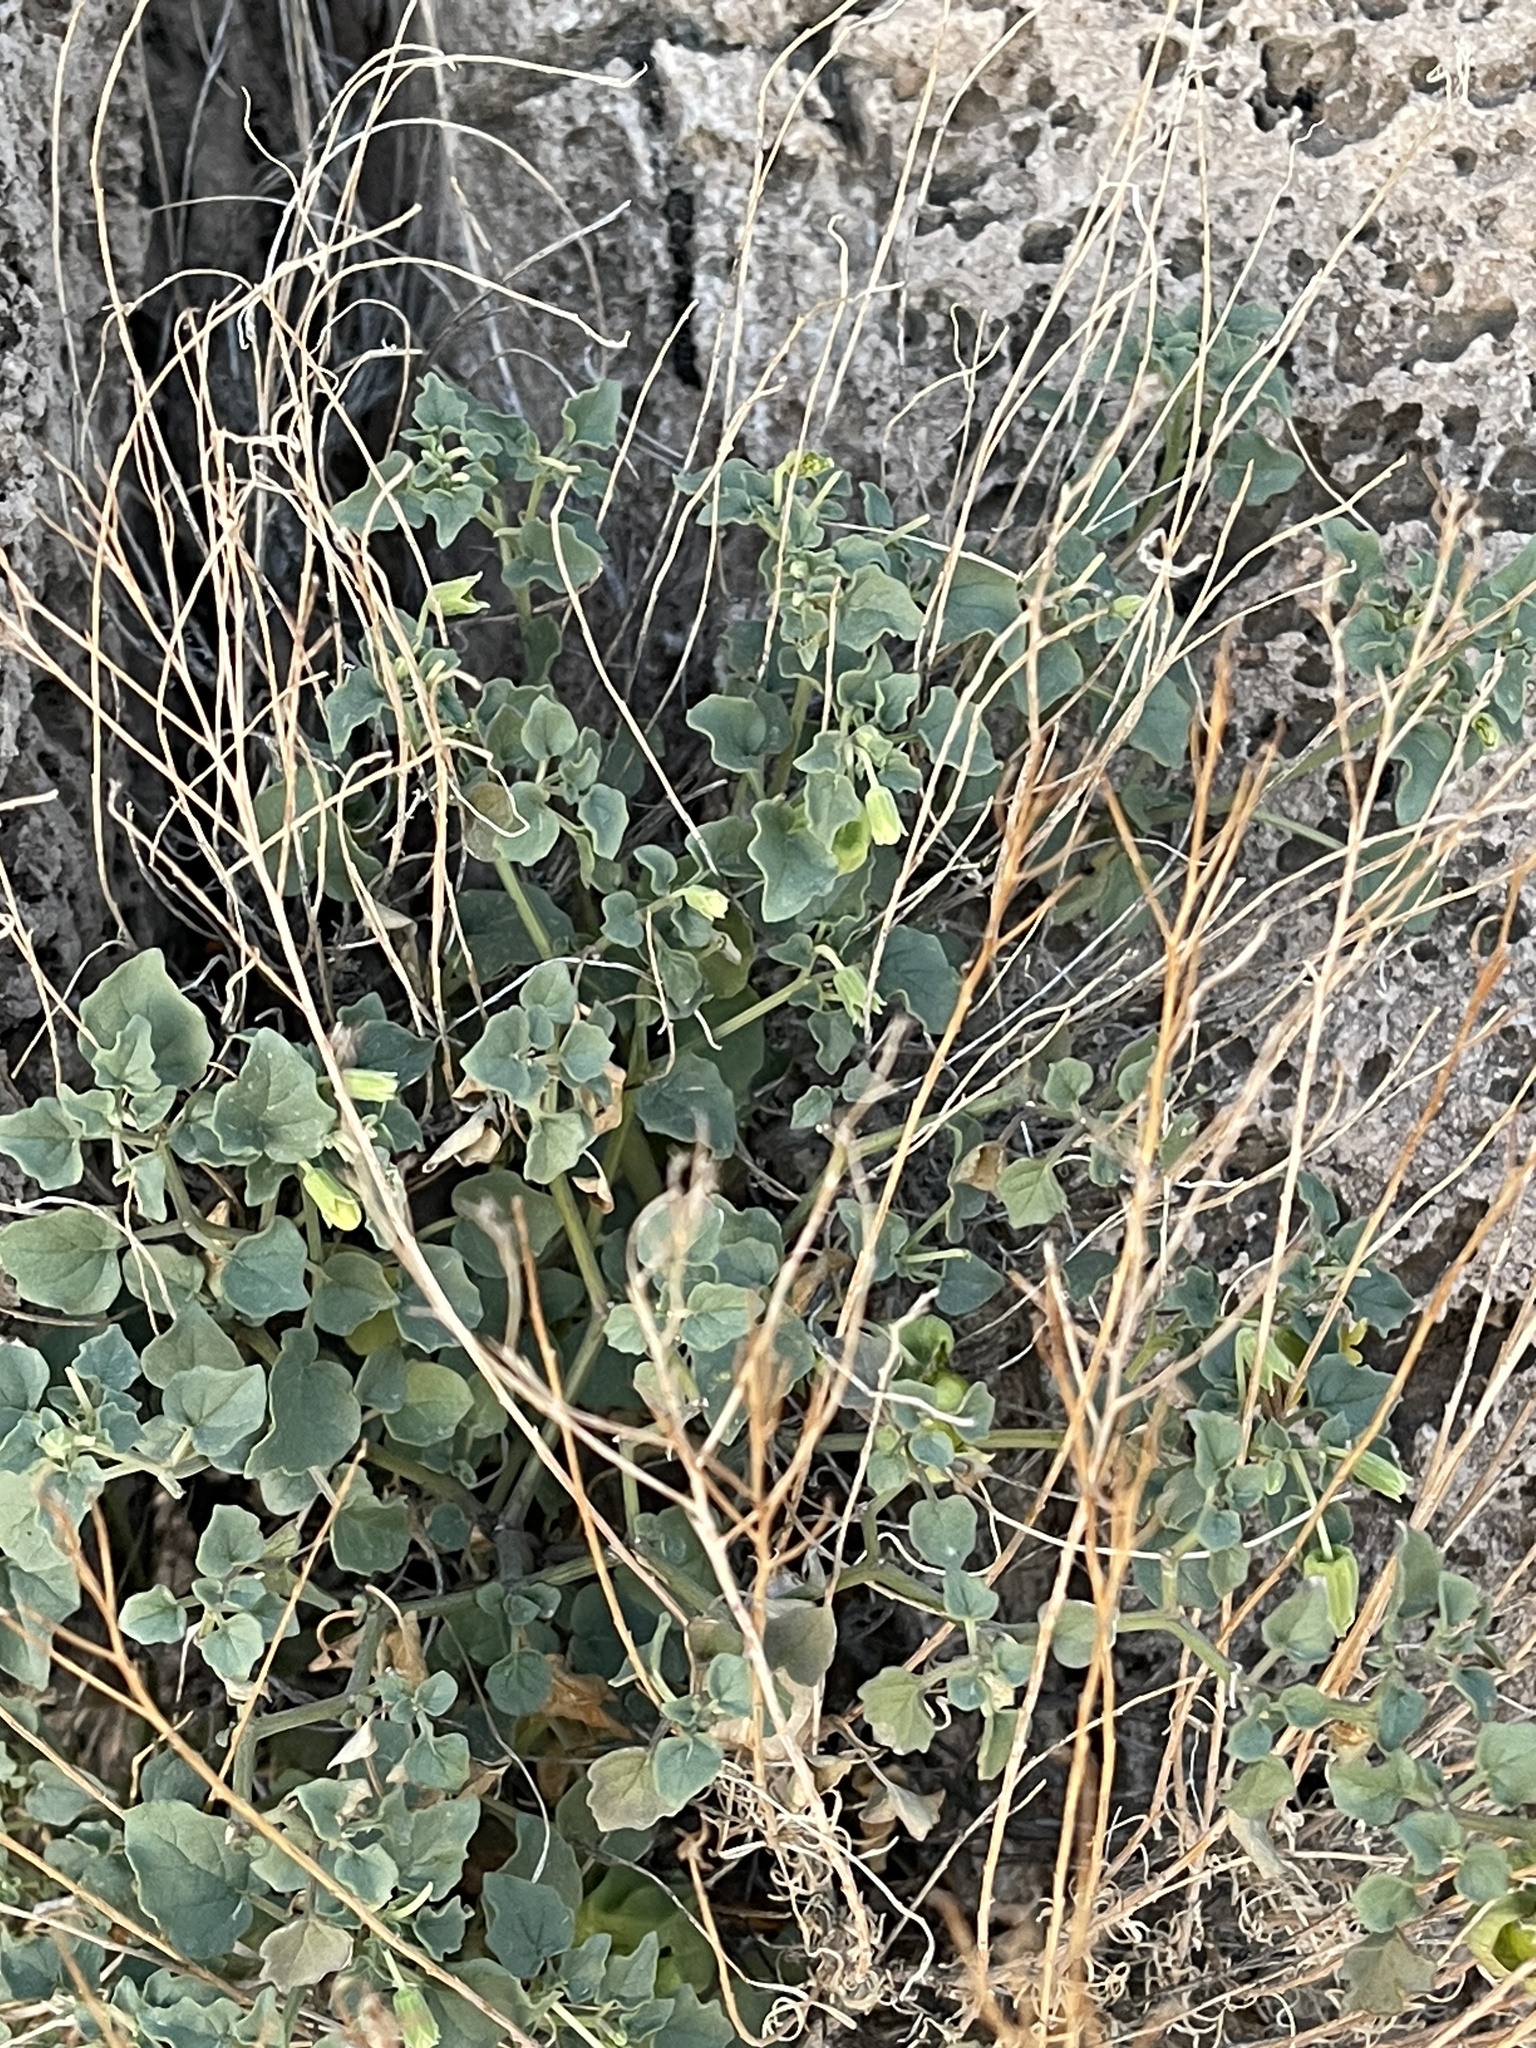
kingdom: Plantae
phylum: Tracheophyta
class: Magnoliopsida
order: Solanales
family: Solanaceae
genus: Physalis
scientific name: Physalis crassifolia
